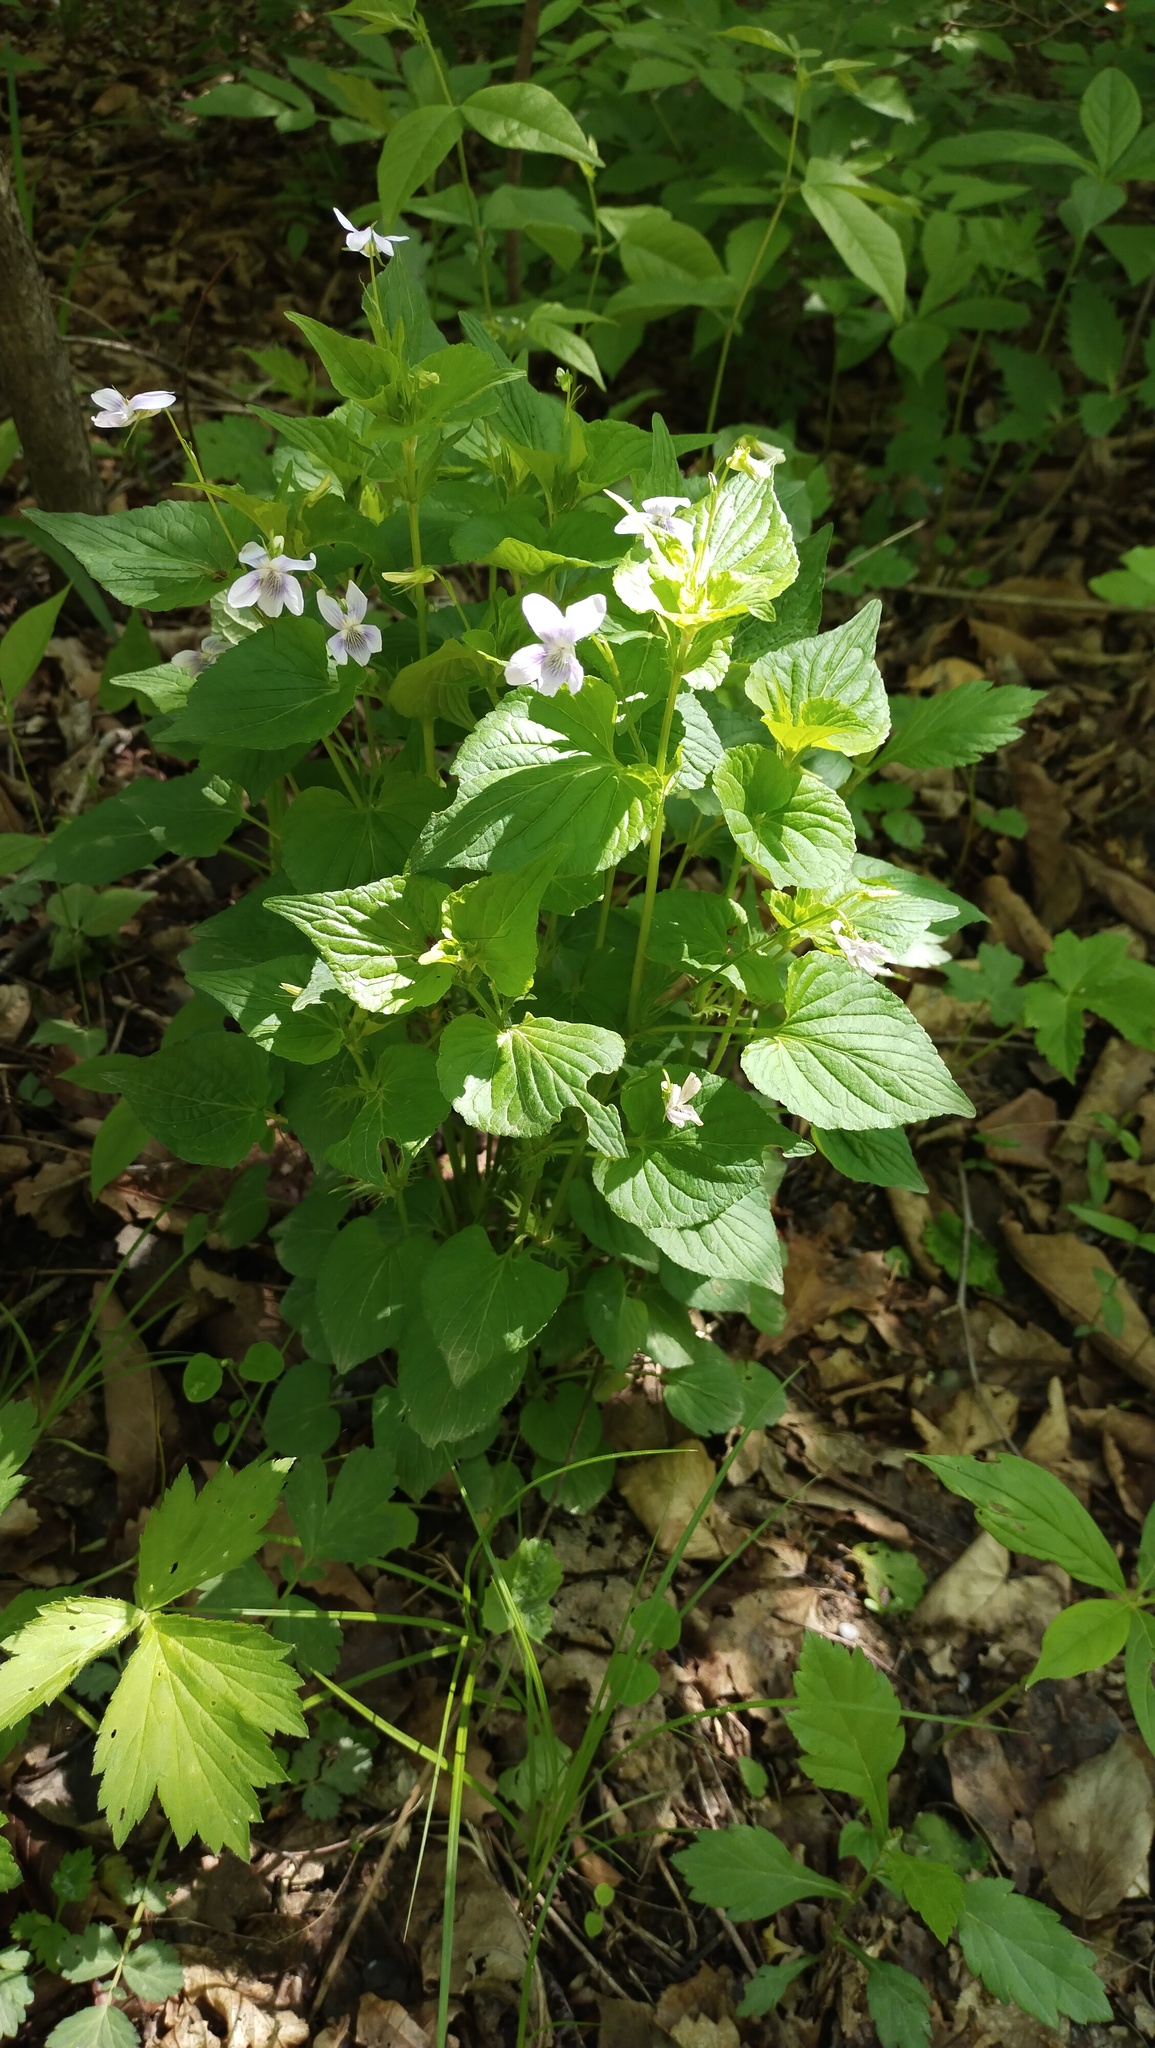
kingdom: Plantae
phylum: Tracheophyta
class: Magnoliopsida
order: Malpighiales
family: Violaceae
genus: Viola
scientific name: Viola acuminata
